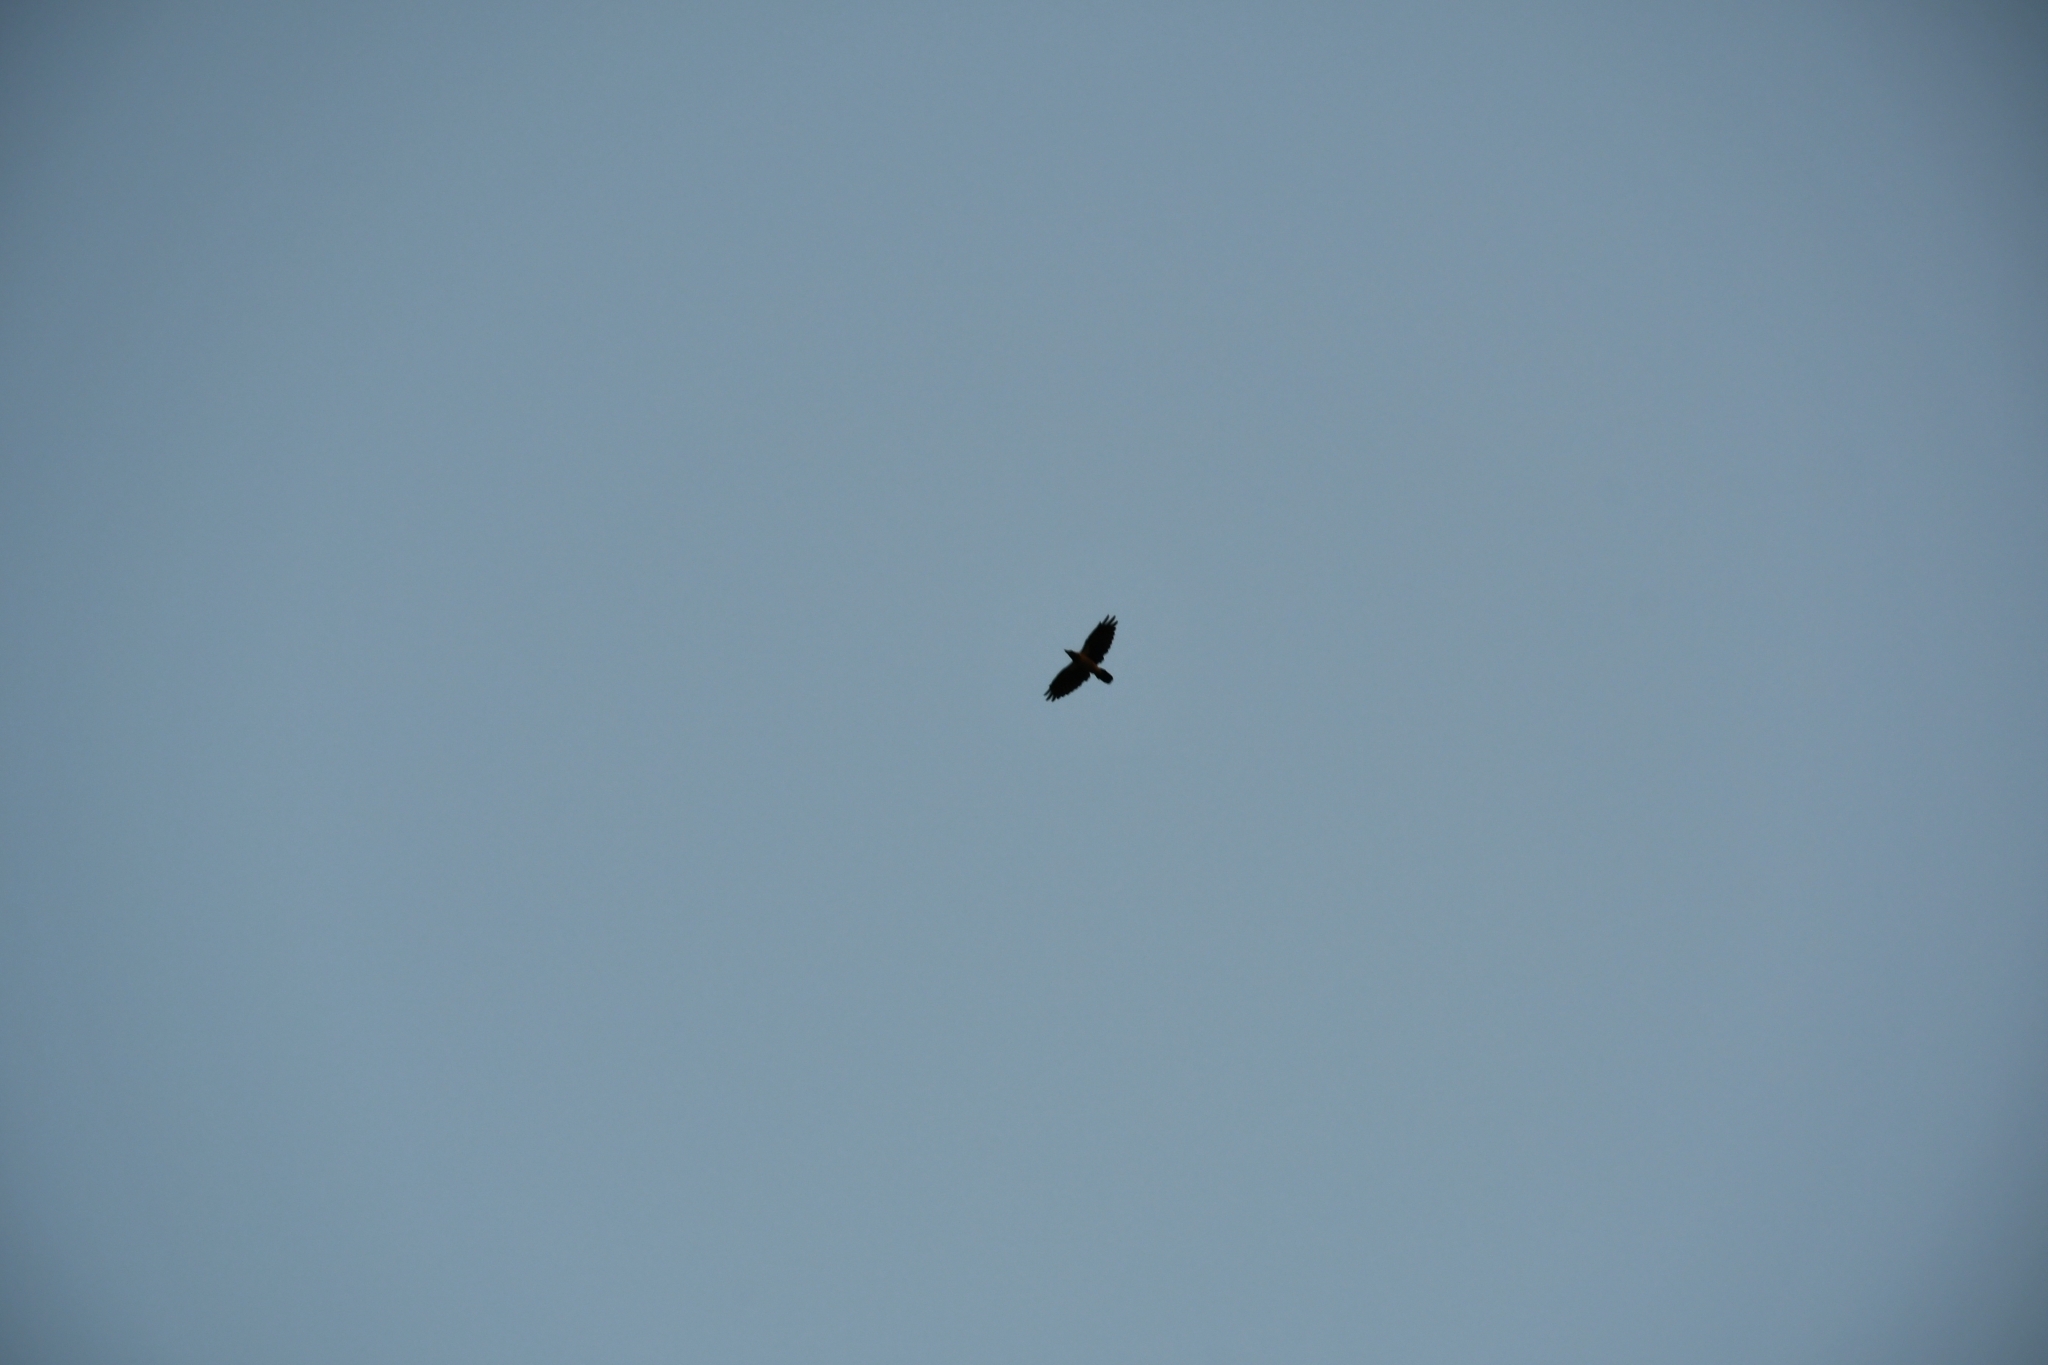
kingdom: Animalia
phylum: Chordata
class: Aves
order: Passeriformes
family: Corvidae
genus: Corvus
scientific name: Corvus cornix
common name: Hooded crow
